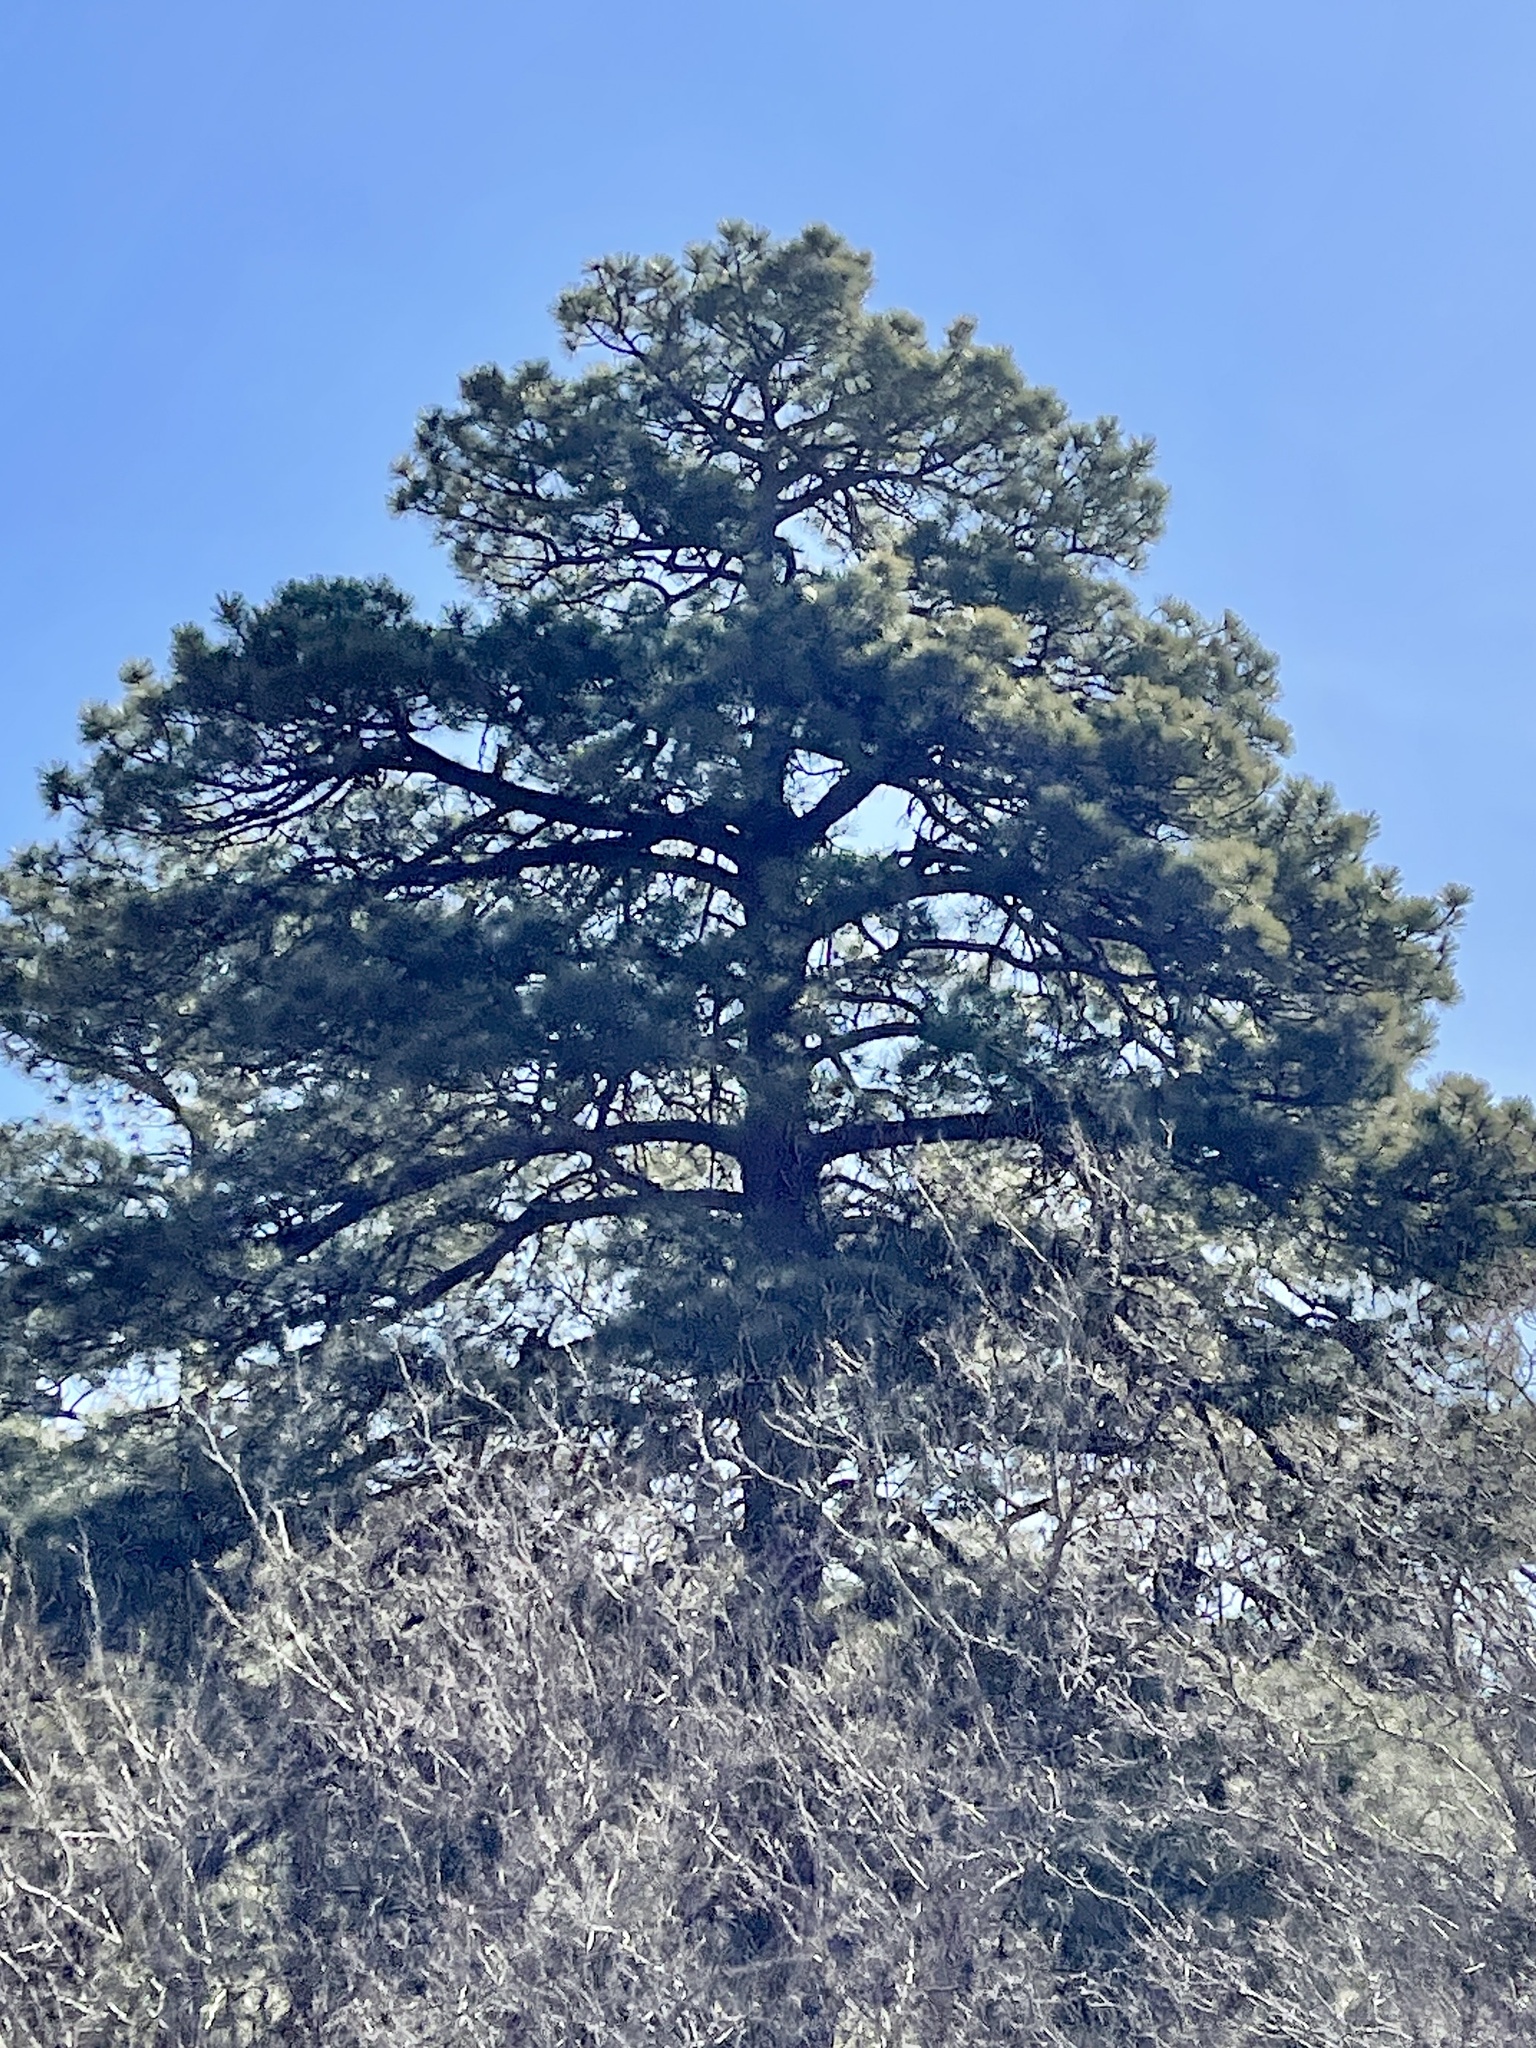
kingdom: Plantae
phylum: Tracheophyta
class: Pinopsida
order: Pinales
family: Pinaceae
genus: Pinus
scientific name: Pinus ponderosa
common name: Western yellow-pine
